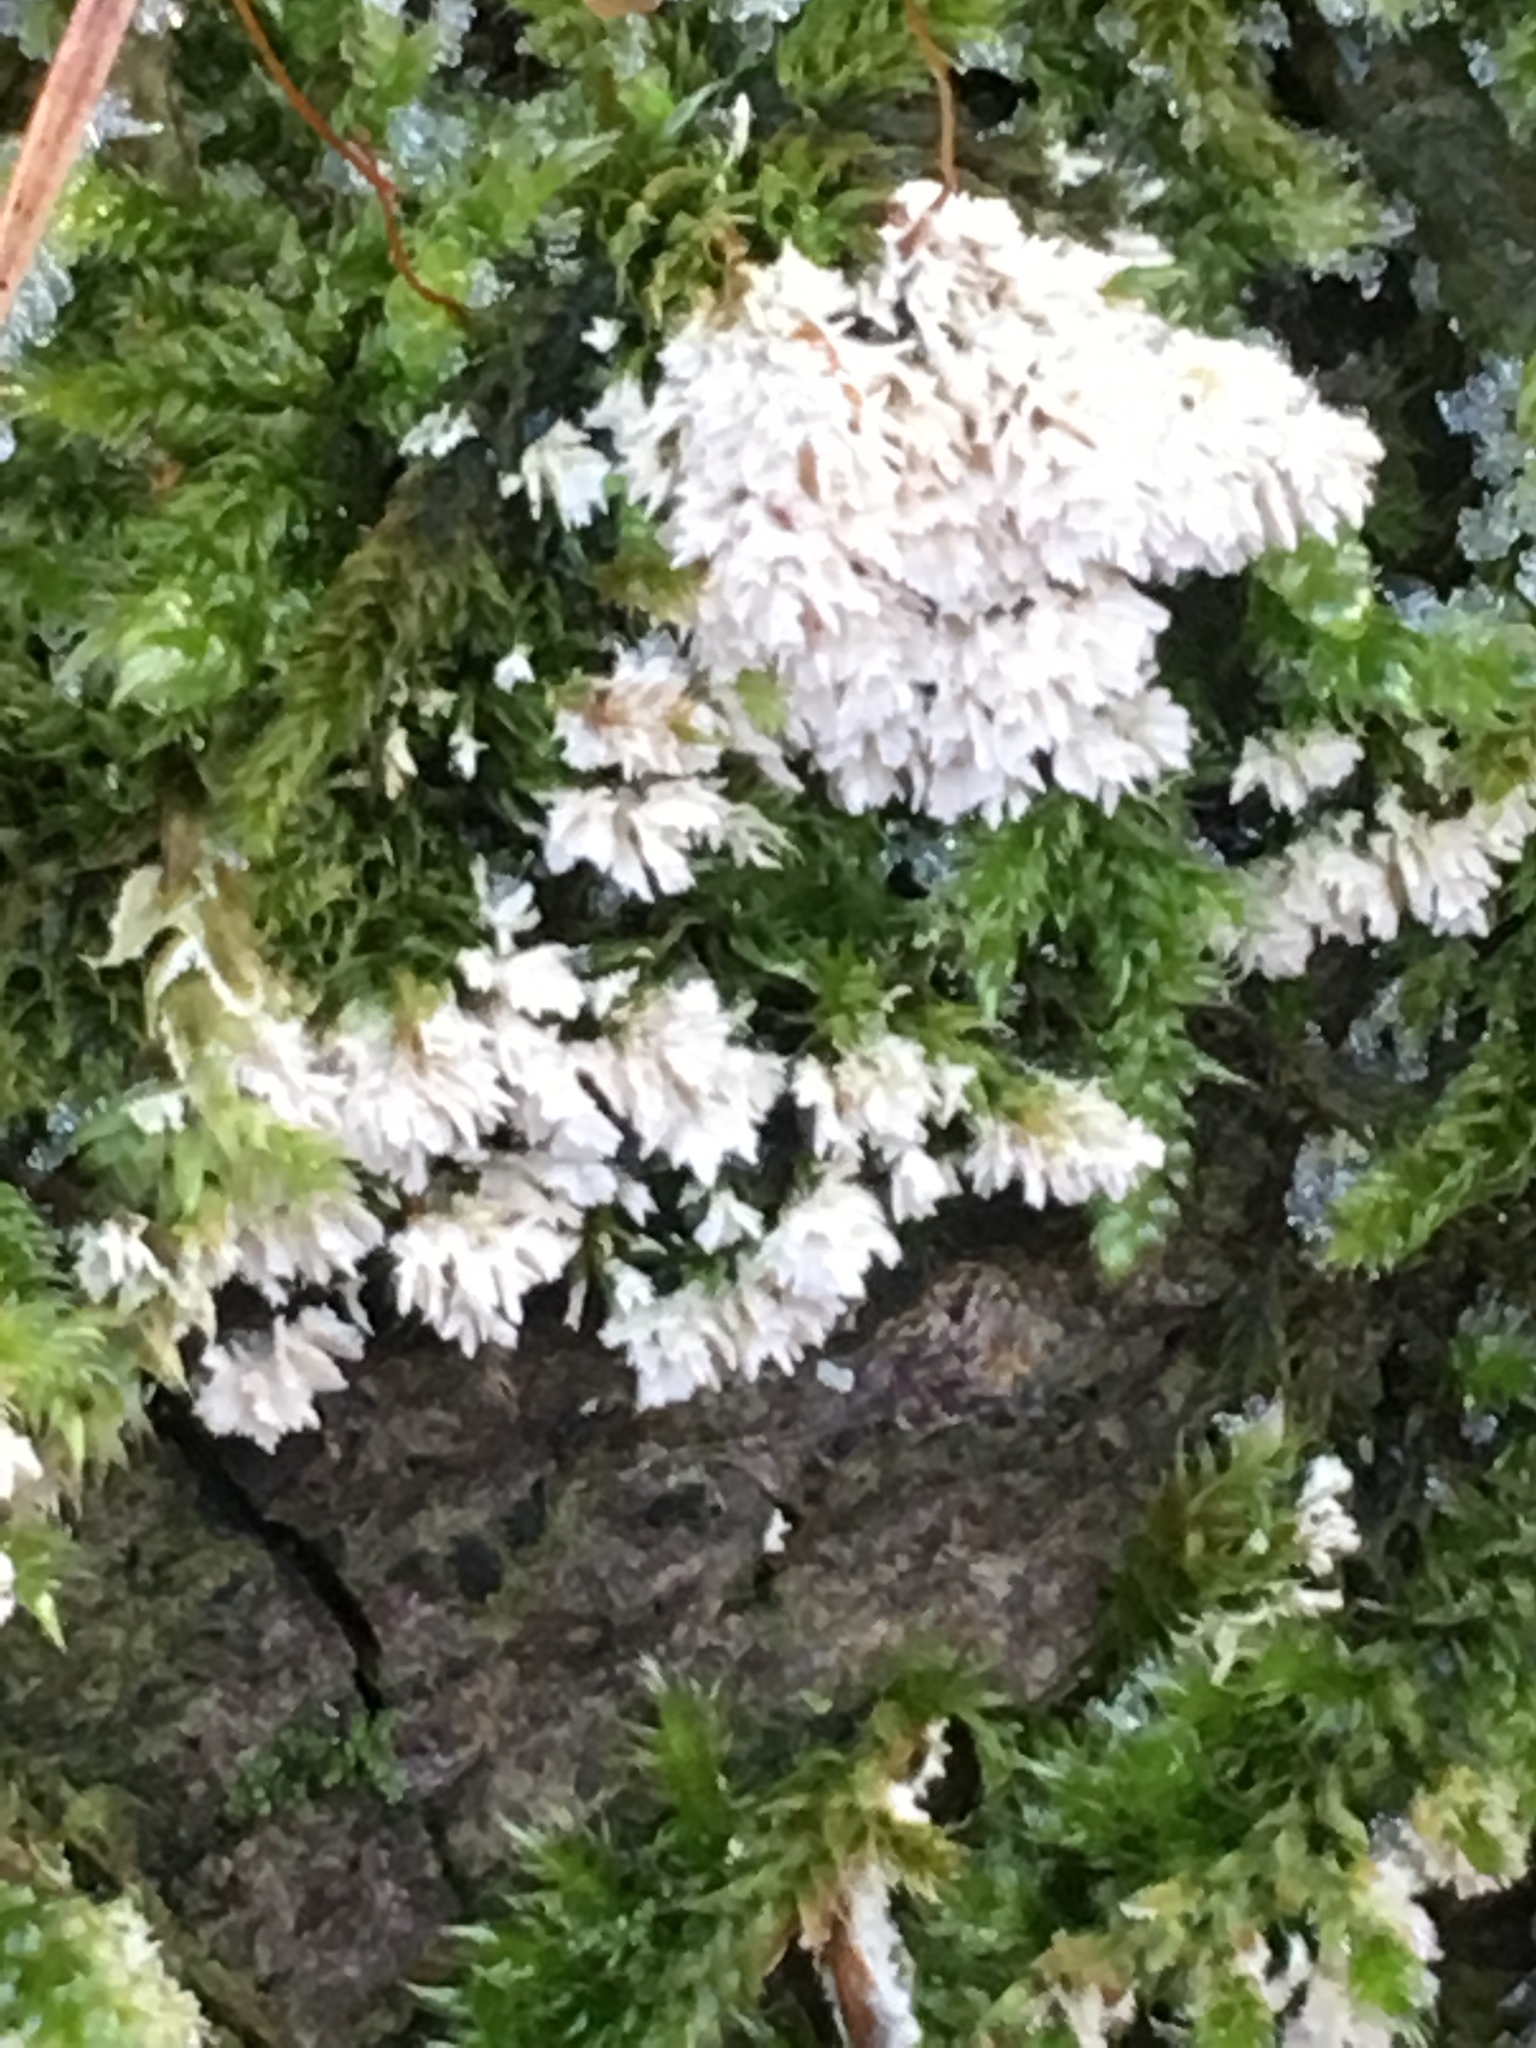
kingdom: Protozoa
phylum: Mycetozoa
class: Protosteliomycetes
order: Ceratiomyxales
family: Ceratiomyxaceae
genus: Ceratiomyxa
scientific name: Ceratiomyxa fruticulosa
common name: Honeycomb coral slime mold
